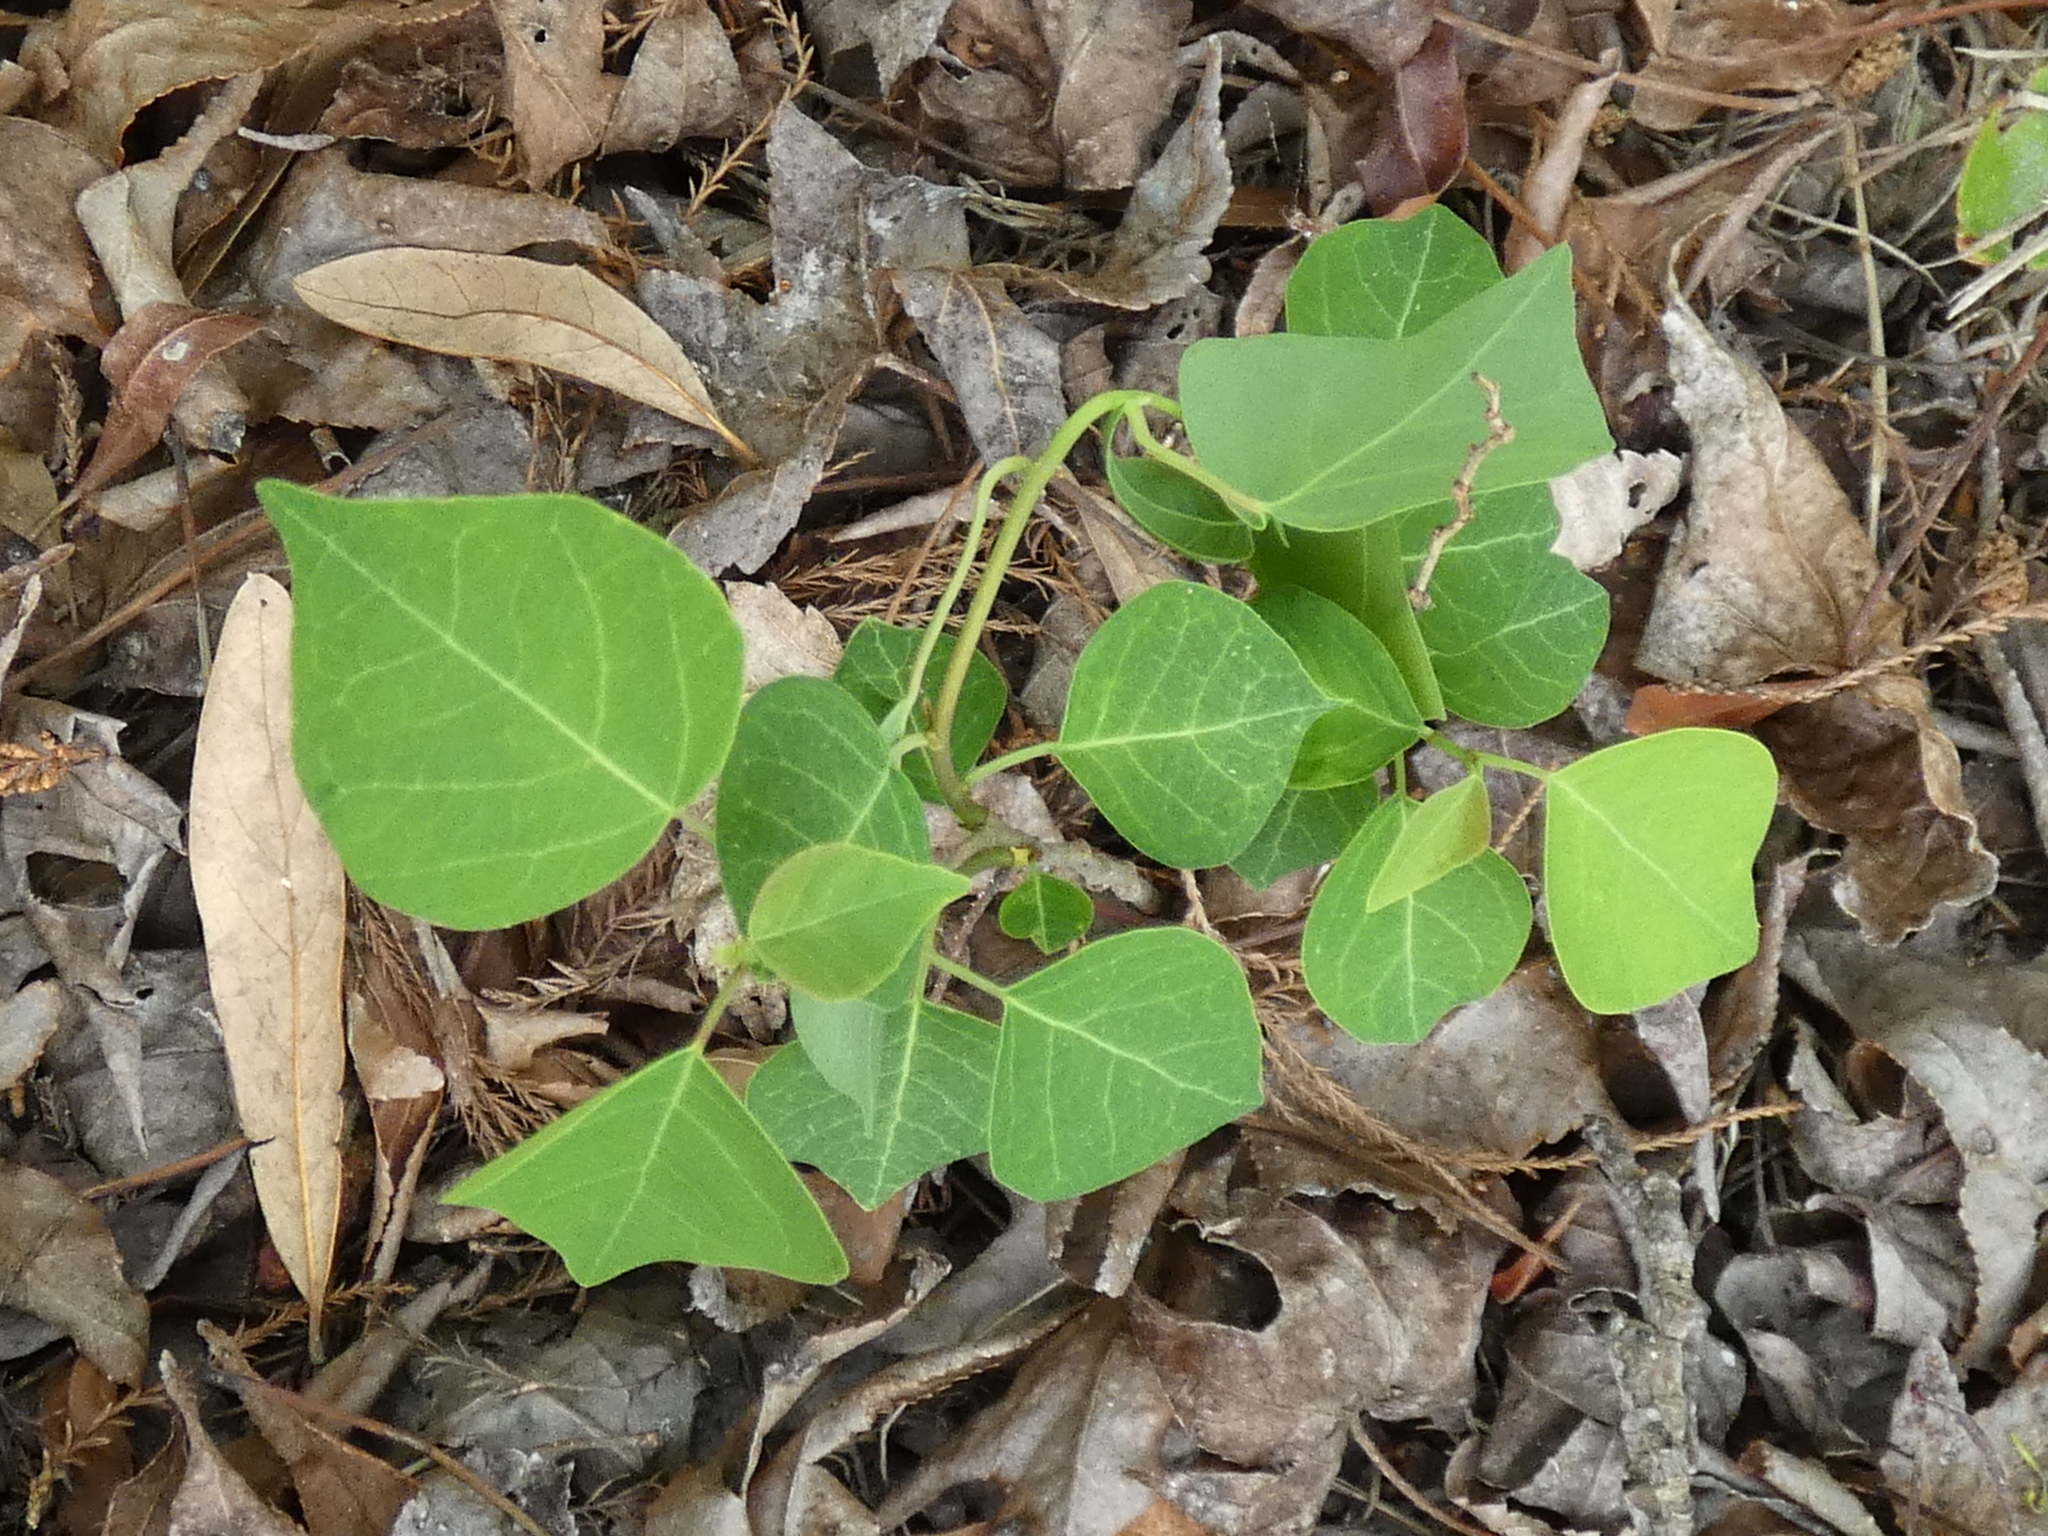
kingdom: Plantae
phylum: Tracheophyta
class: Magnoliopsida
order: Malpighiales
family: Euphorbiaceae
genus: Triadica
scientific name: Triadica sebifera
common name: Chinese tallow
